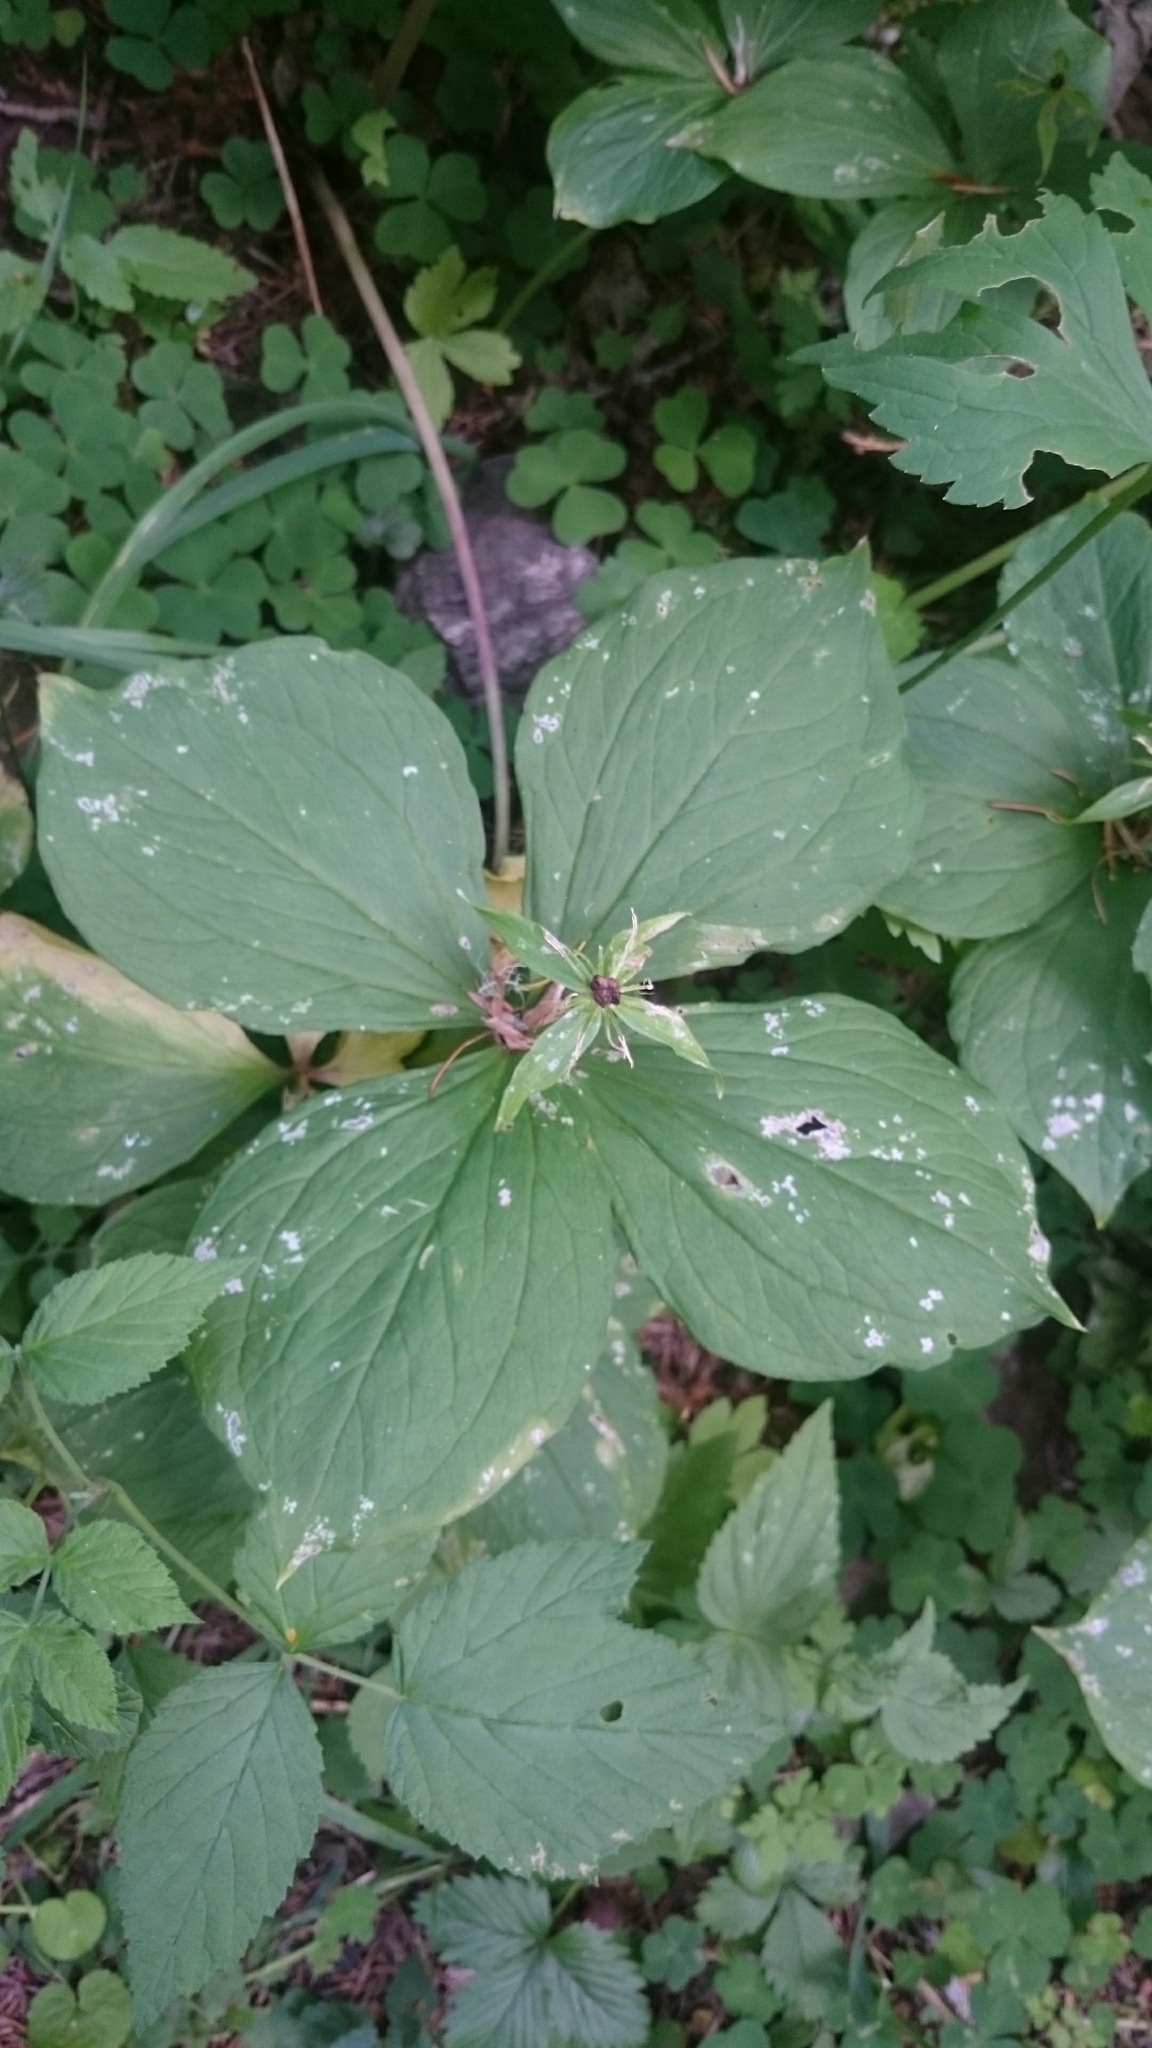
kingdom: Plantae
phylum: Tracheophyta
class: Liliopsida
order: Liliales
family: Melanthiaceae
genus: Paris
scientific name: Paris quadrifolia
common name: Herb-paris
